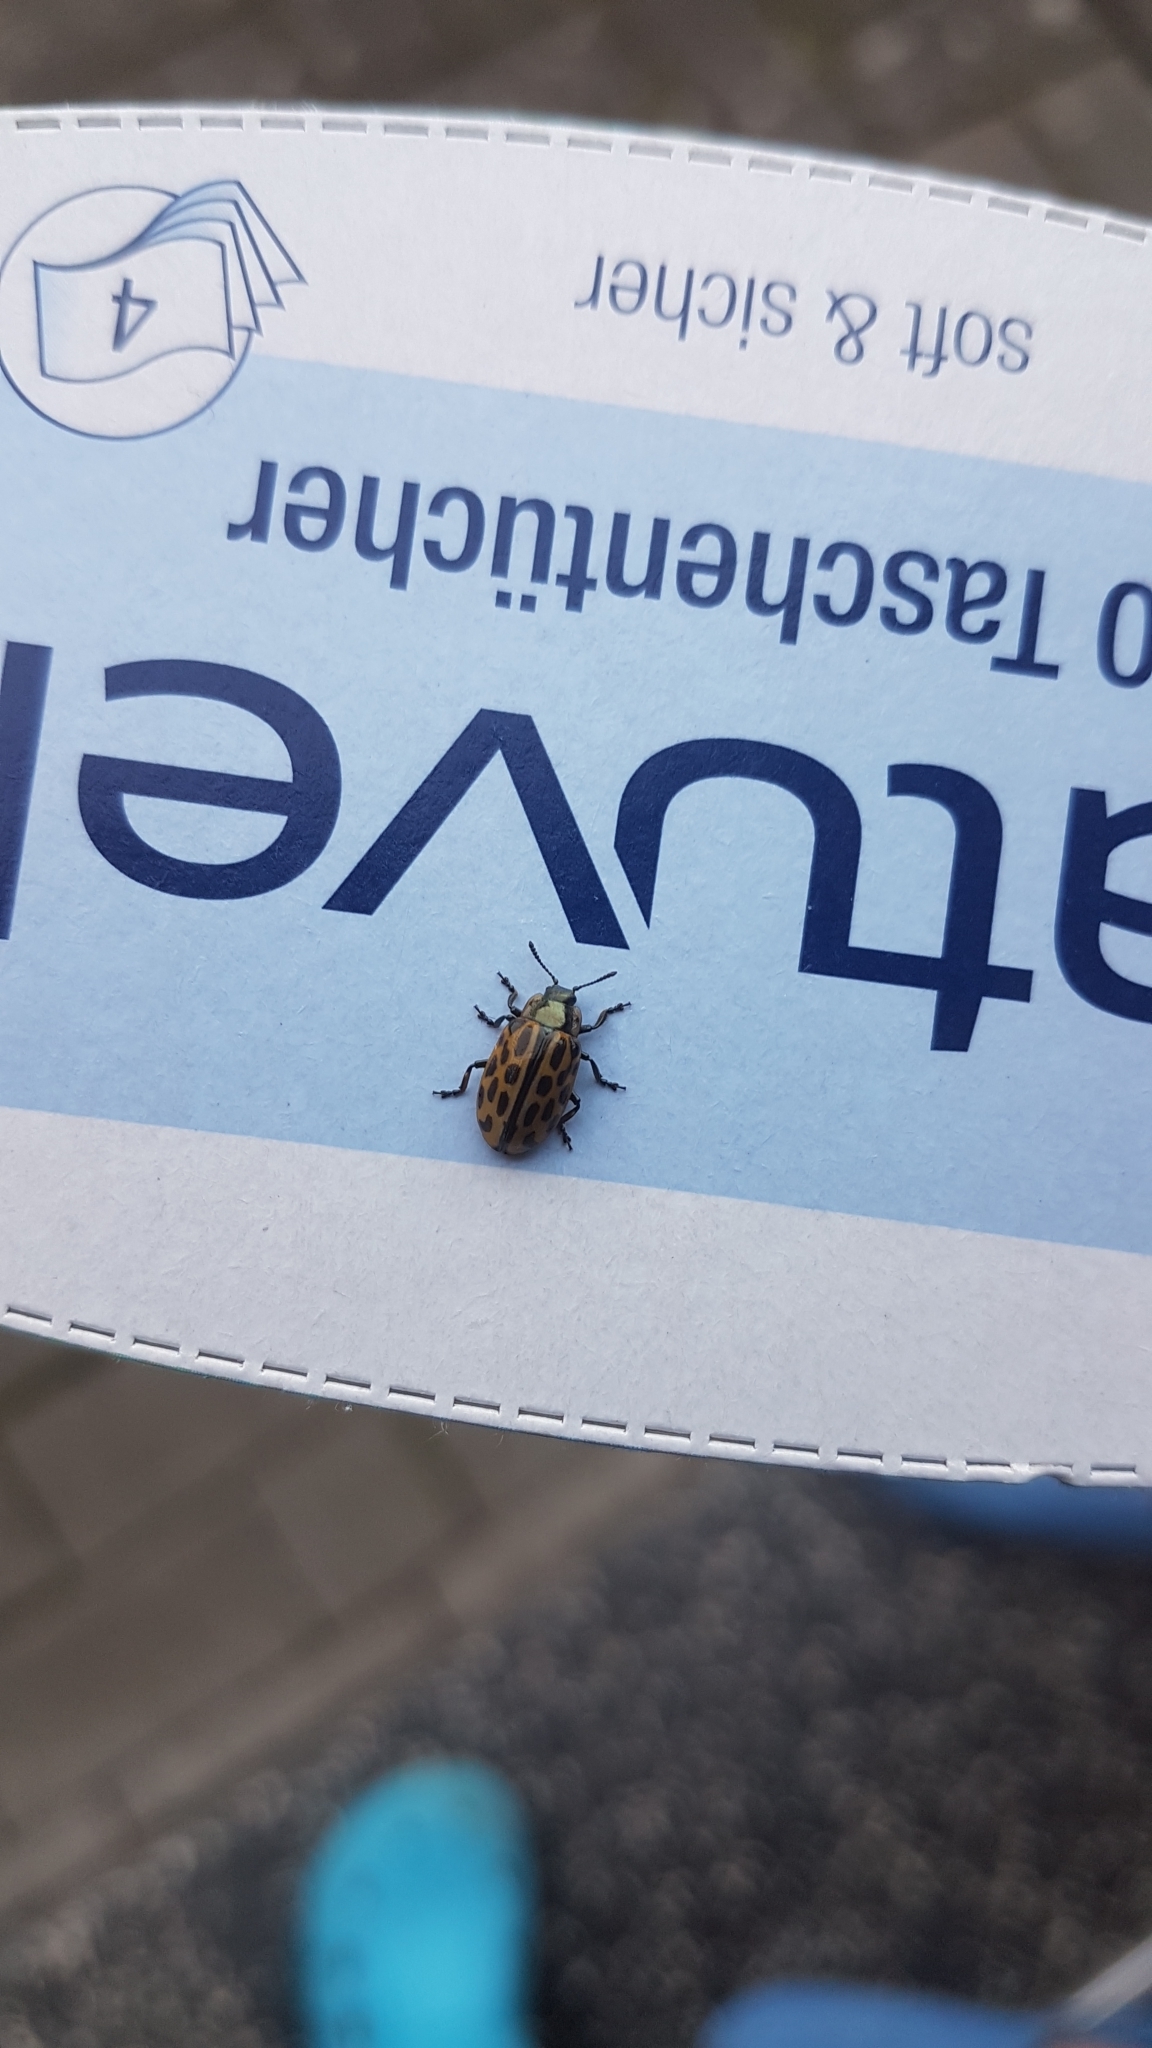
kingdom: Animalia
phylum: Arthropoda
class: Insecta
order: Coleoptera
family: Chrysomelidae
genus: Chrysomela
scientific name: Chrysomela vigintipunctata
